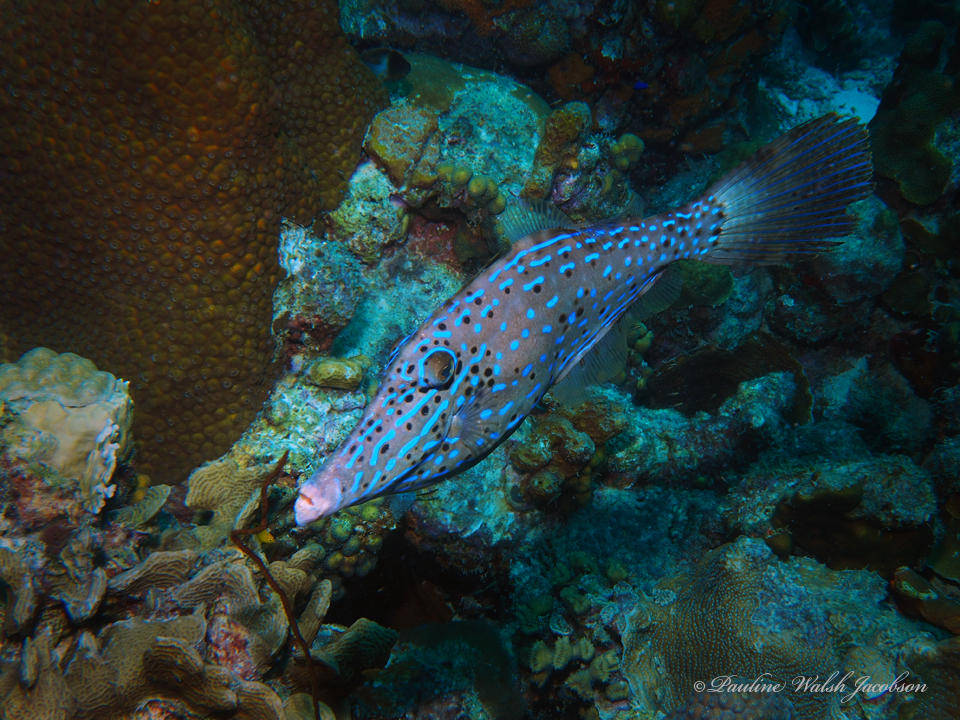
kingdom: Animalia
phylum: Chordata
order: Tetraodontiformes
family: Monacanthidae
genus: Aluterus
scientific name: Aluterus scriptus
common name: Scribbled leatherjacket filefish
